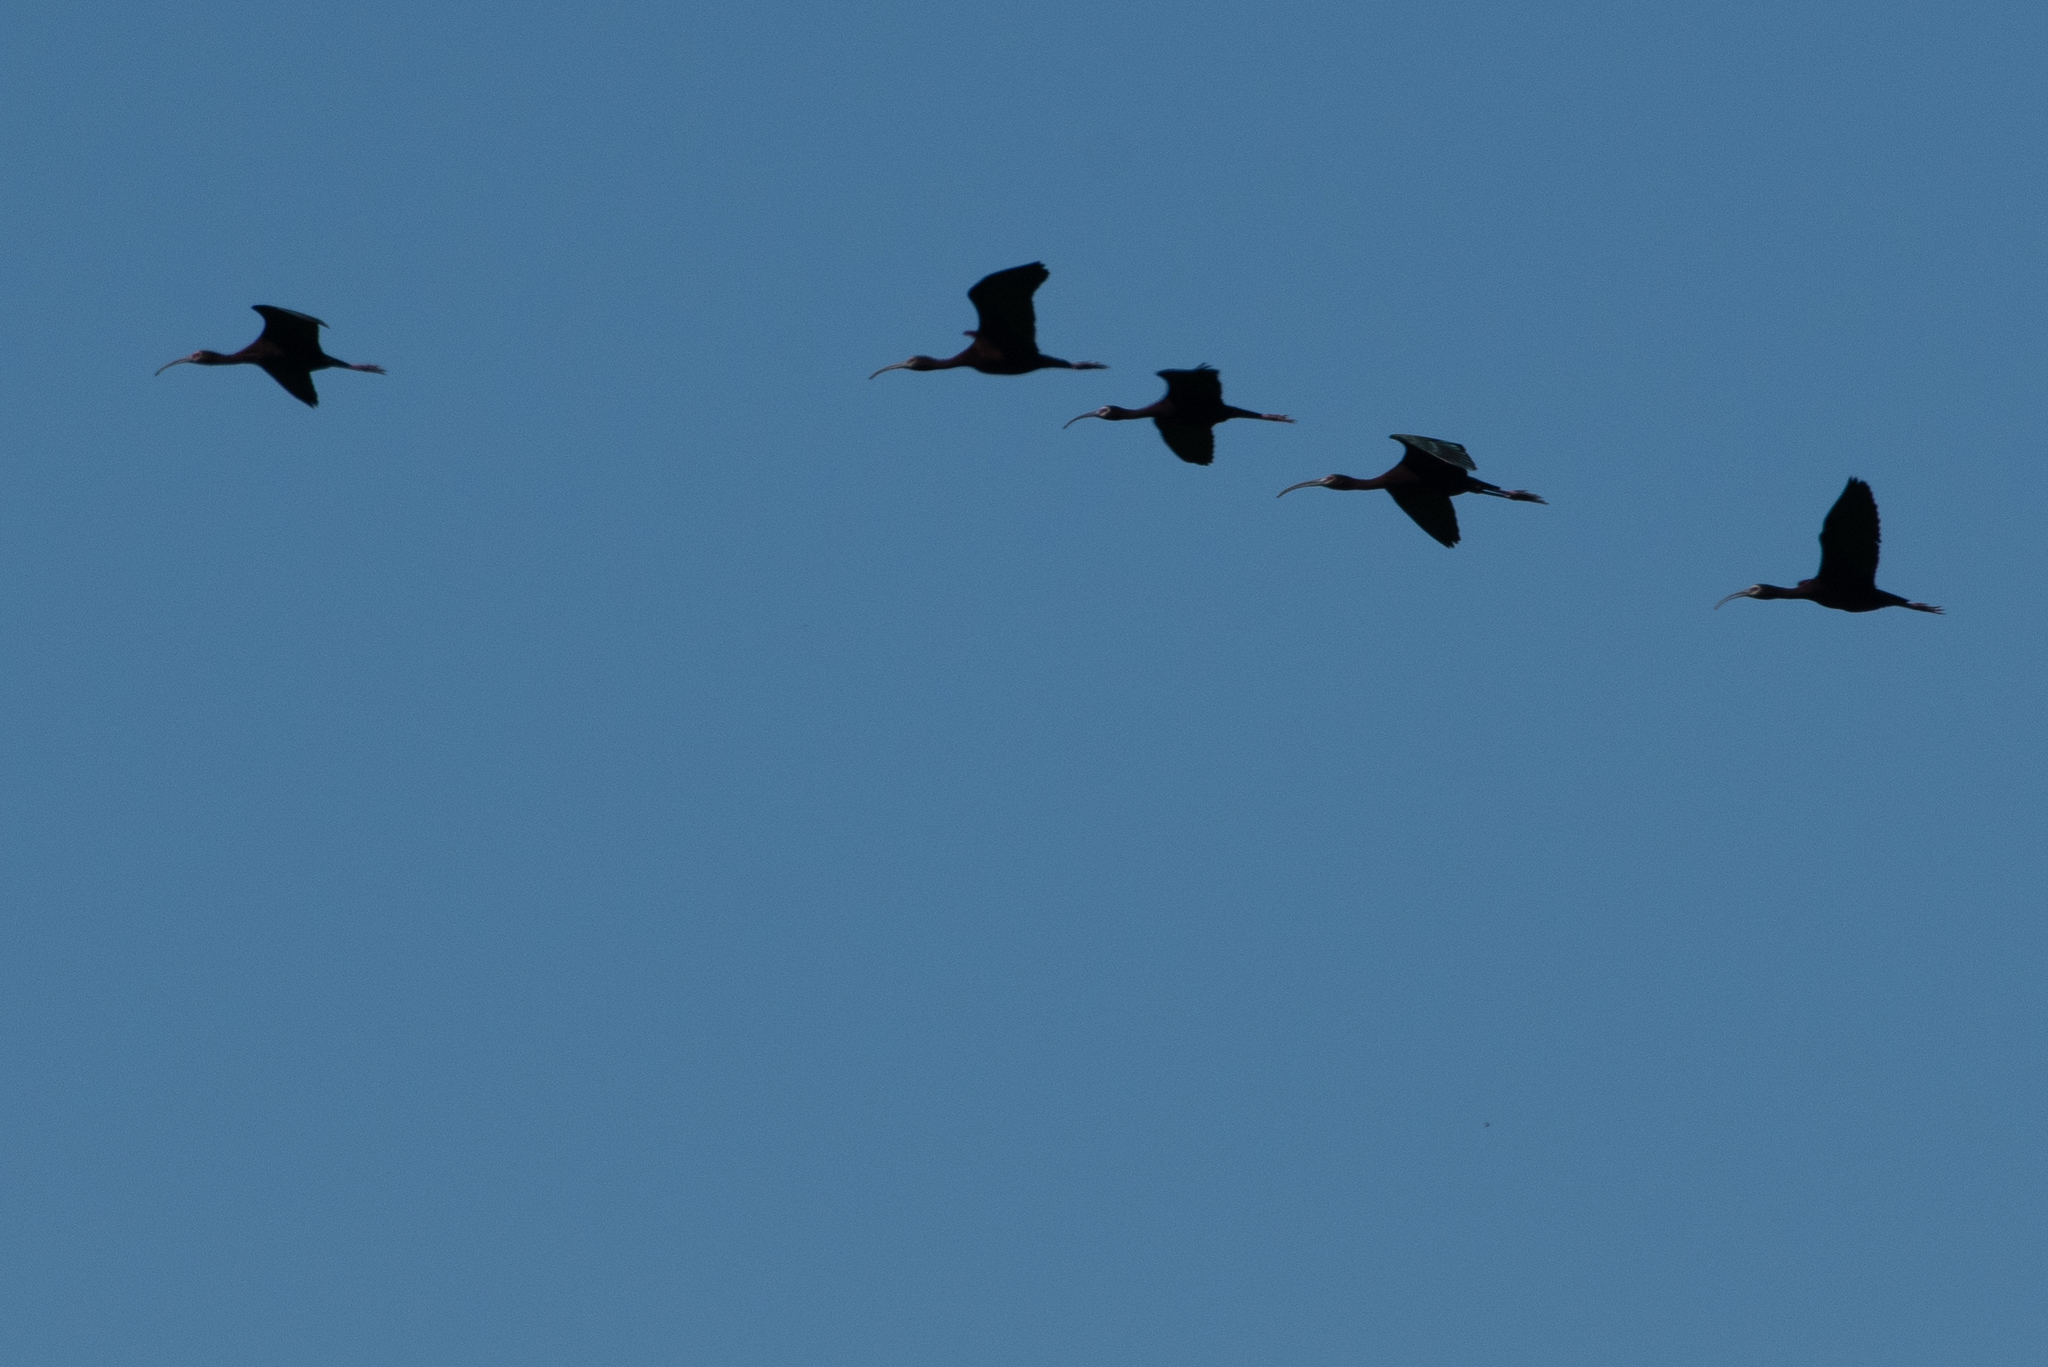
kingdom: Animalia
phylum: Chordata
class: Aves
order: Pelecaniformes
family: Threskiornithidae
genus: Plegadis
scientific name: Plegadis chihi
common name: White-faced ibis
